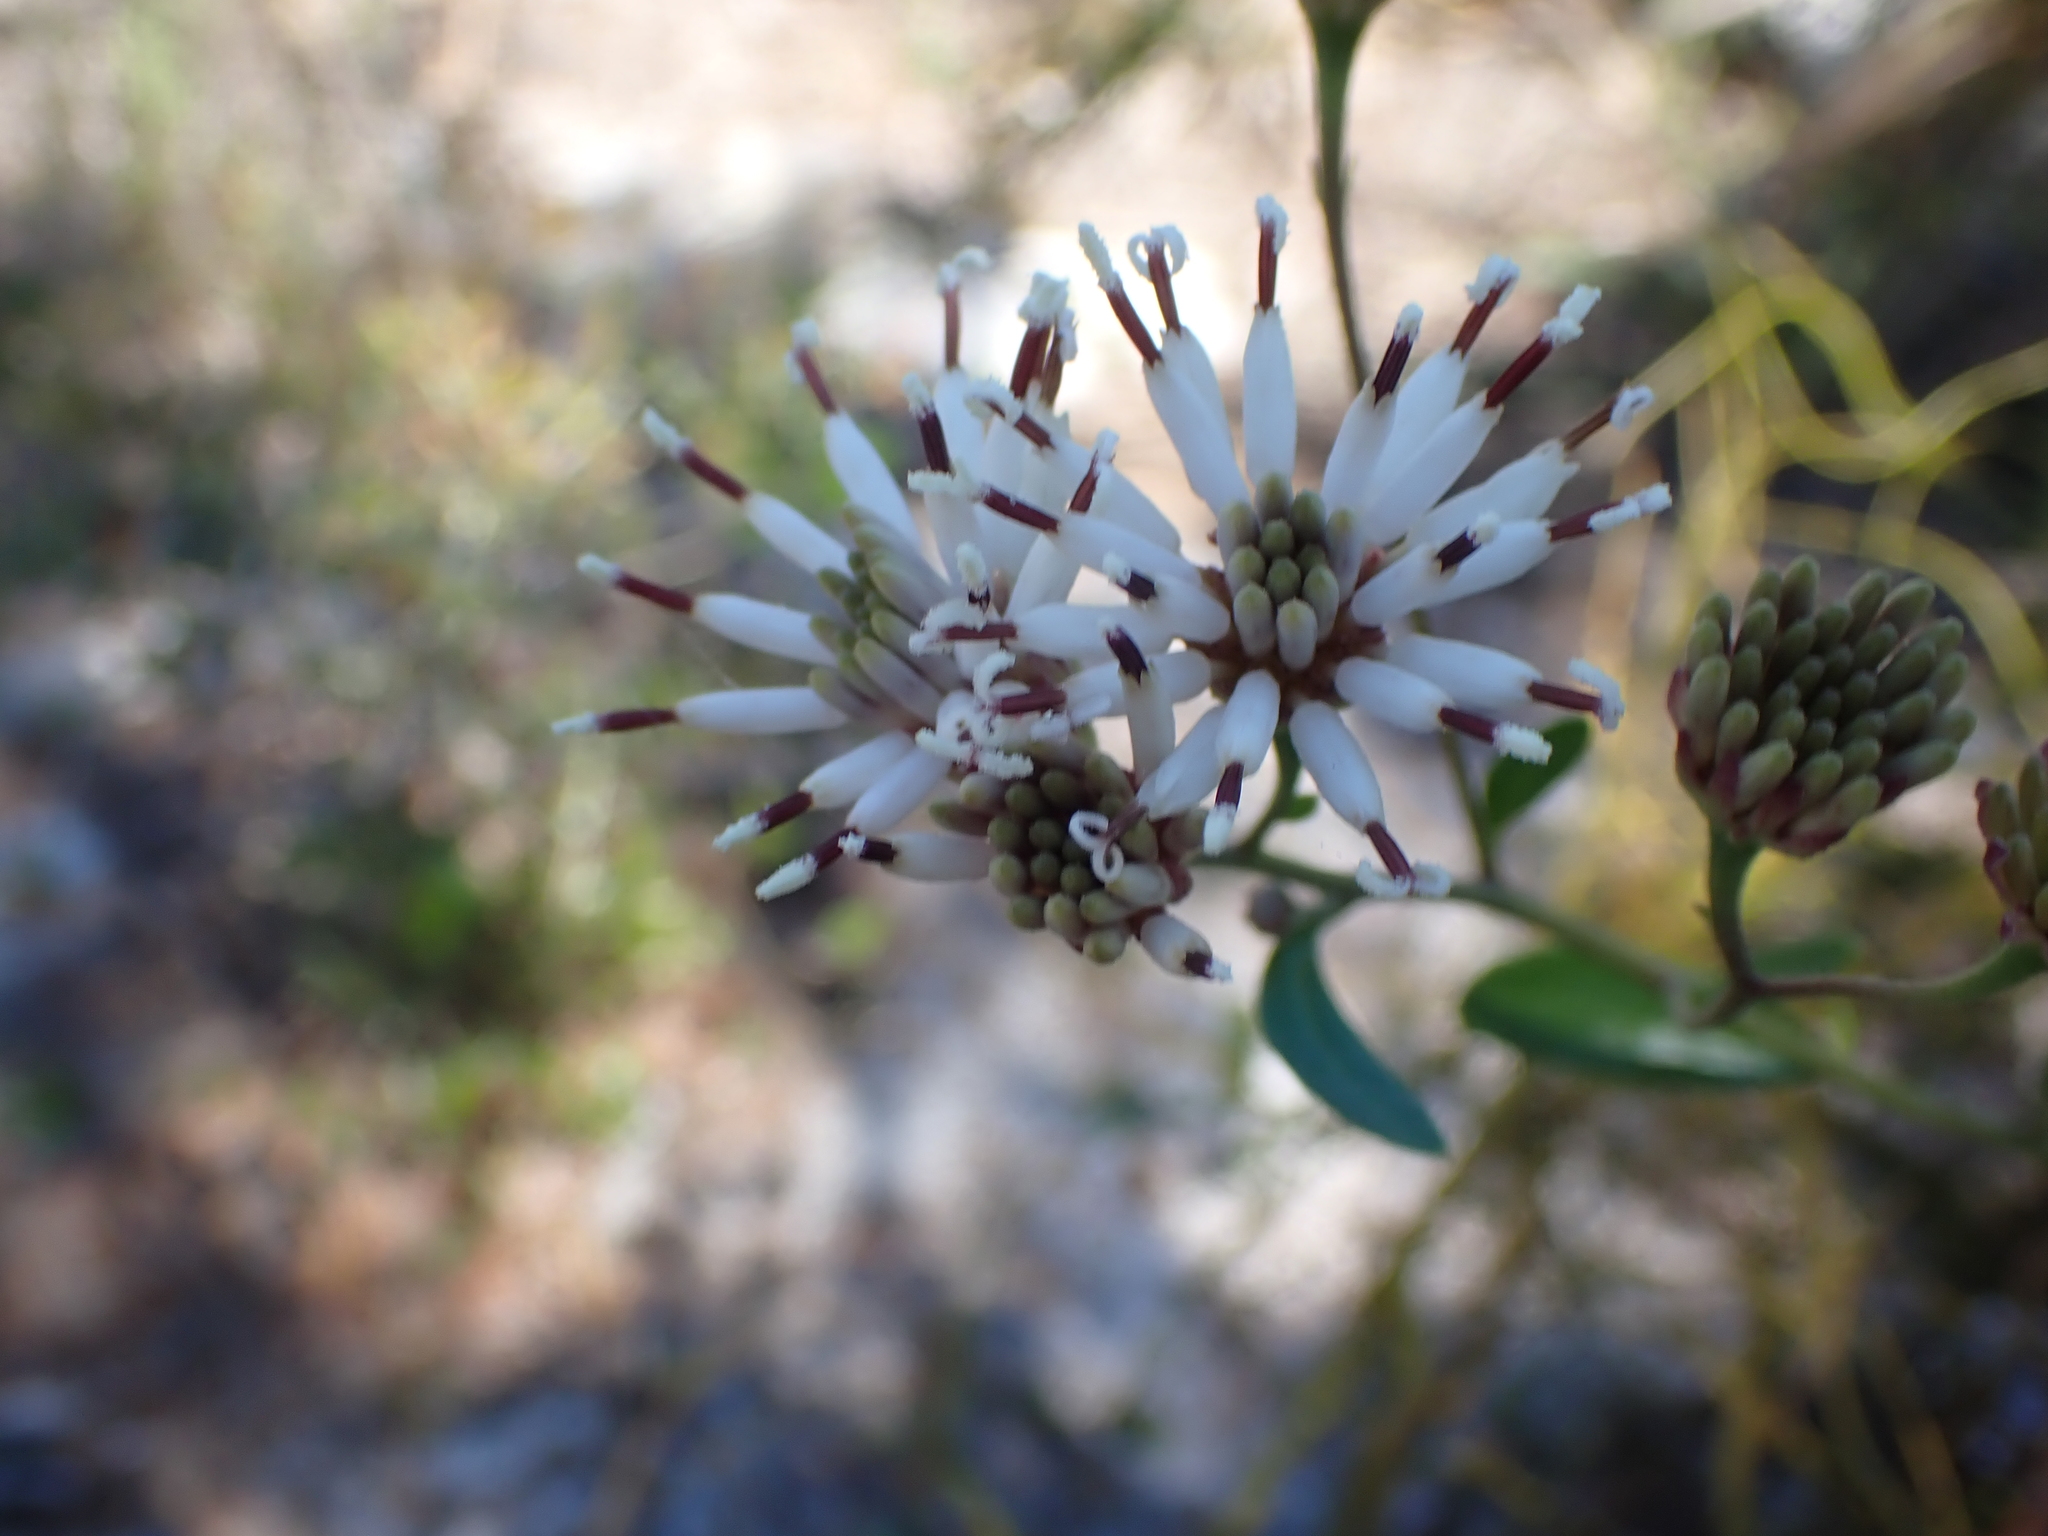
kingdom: Plantae
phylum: Tracheophyta
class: Magnoliopsida
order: Asterales
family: Asteraceae
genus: Palafoxia
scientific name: Palafoxia feayi
